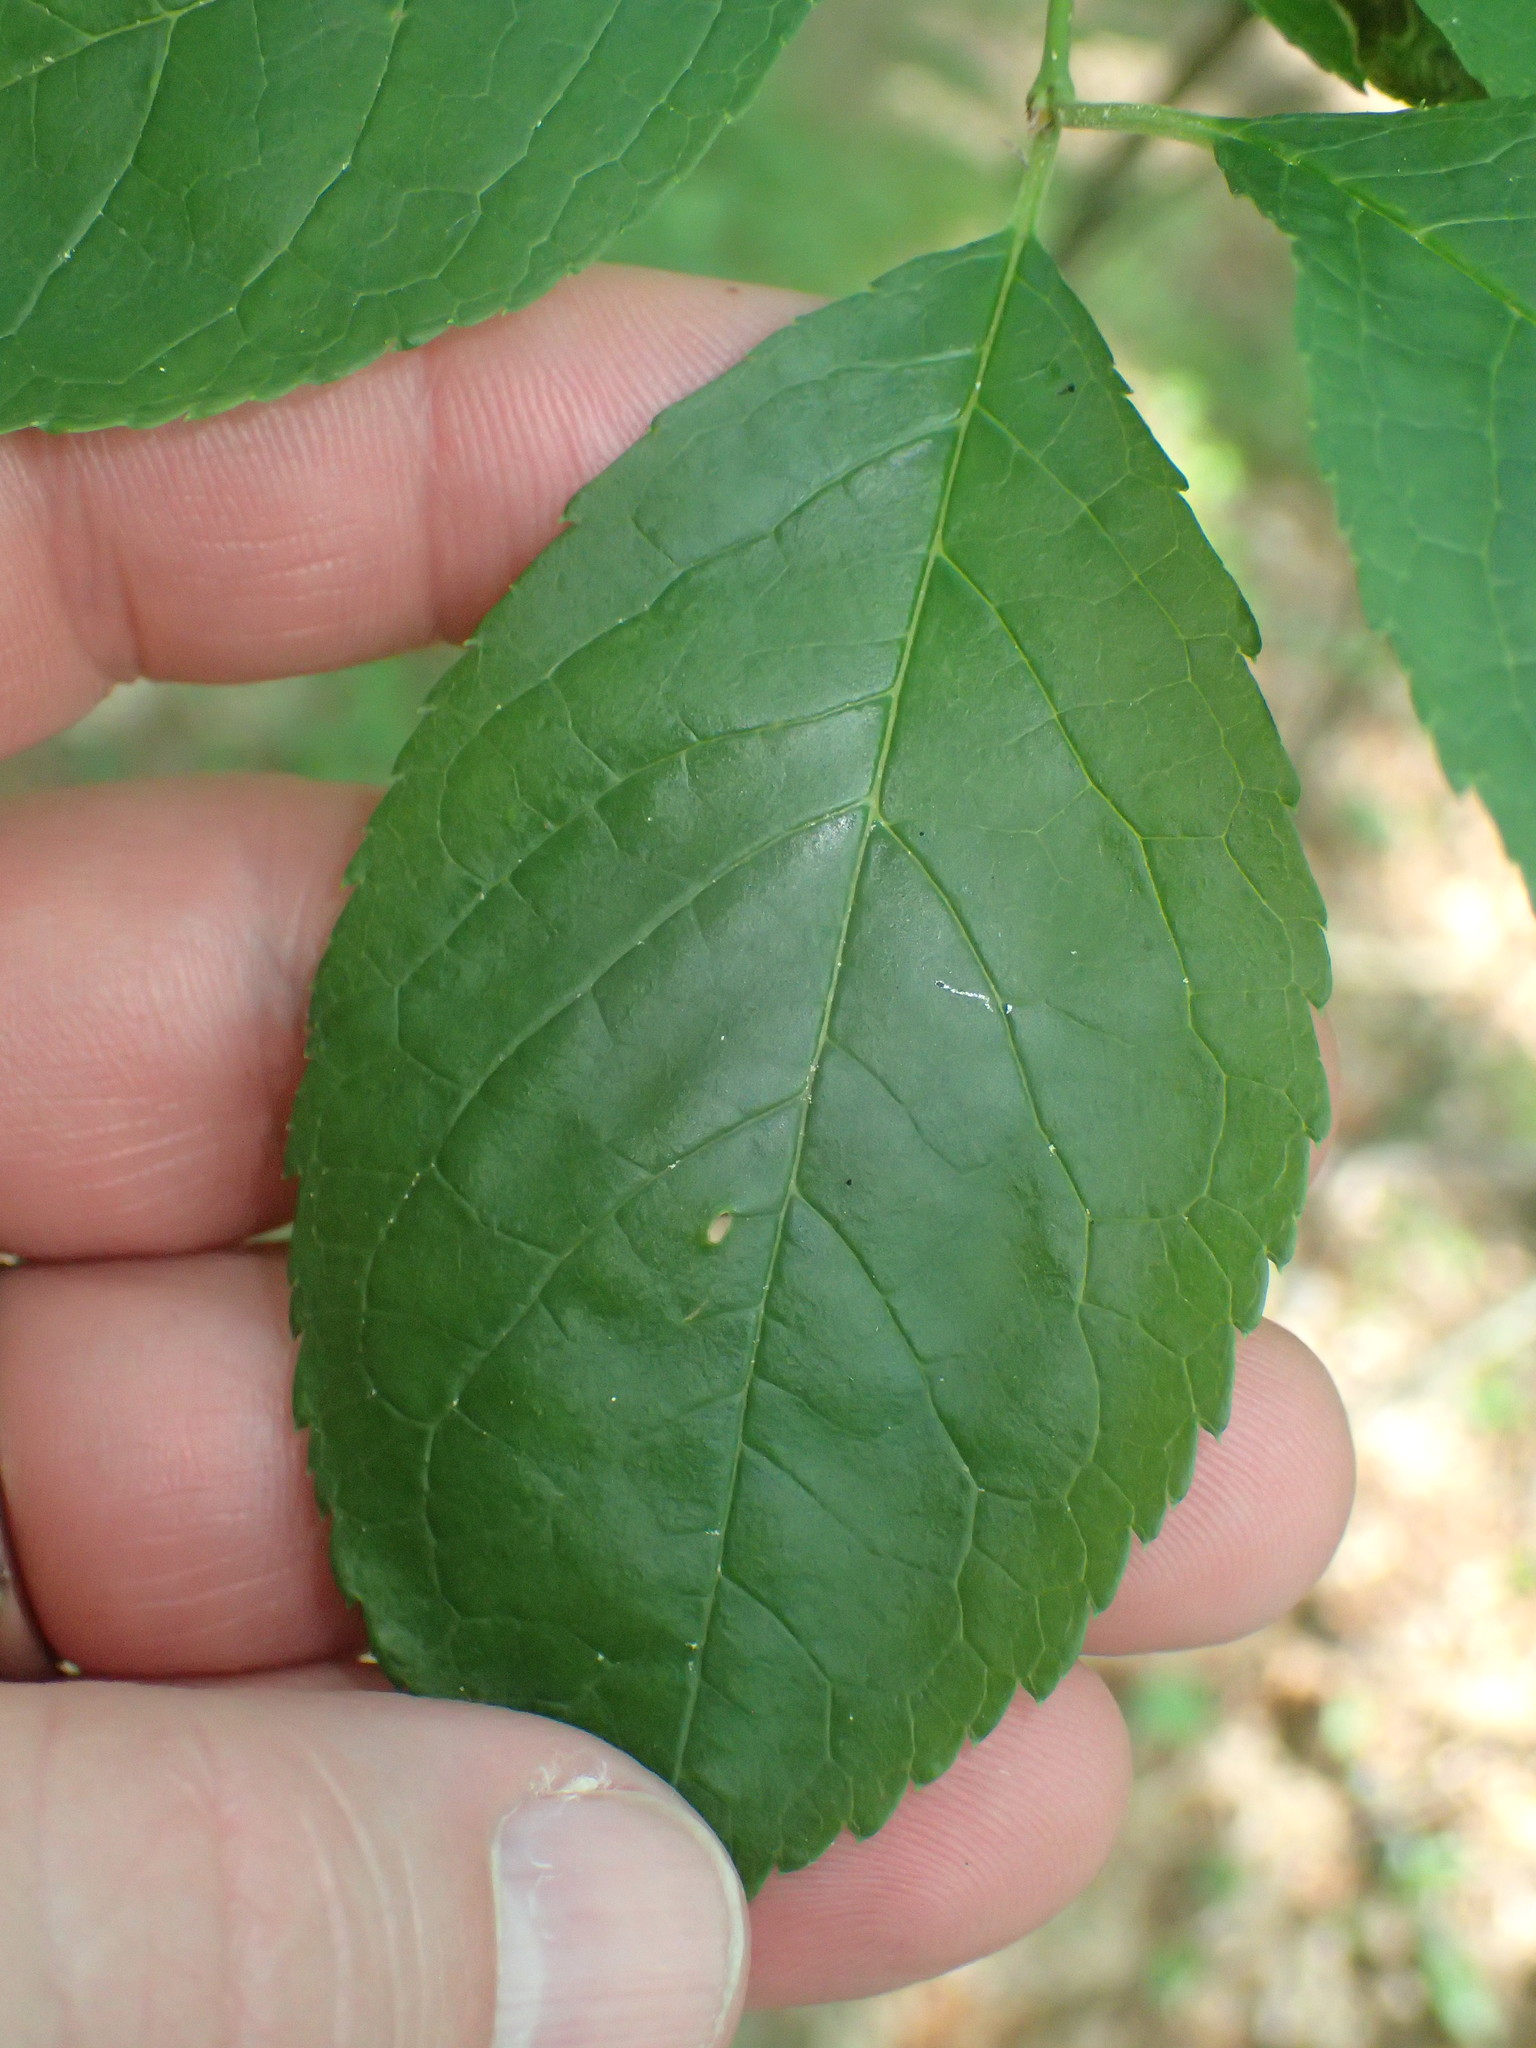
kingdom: Plantae
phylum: Tracheophyta
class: Magnoliopsida
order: Aquifoliales
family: Aquifoliaceae
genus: Ilex
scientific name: Ilex verticillata
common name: Virginia winterberry
